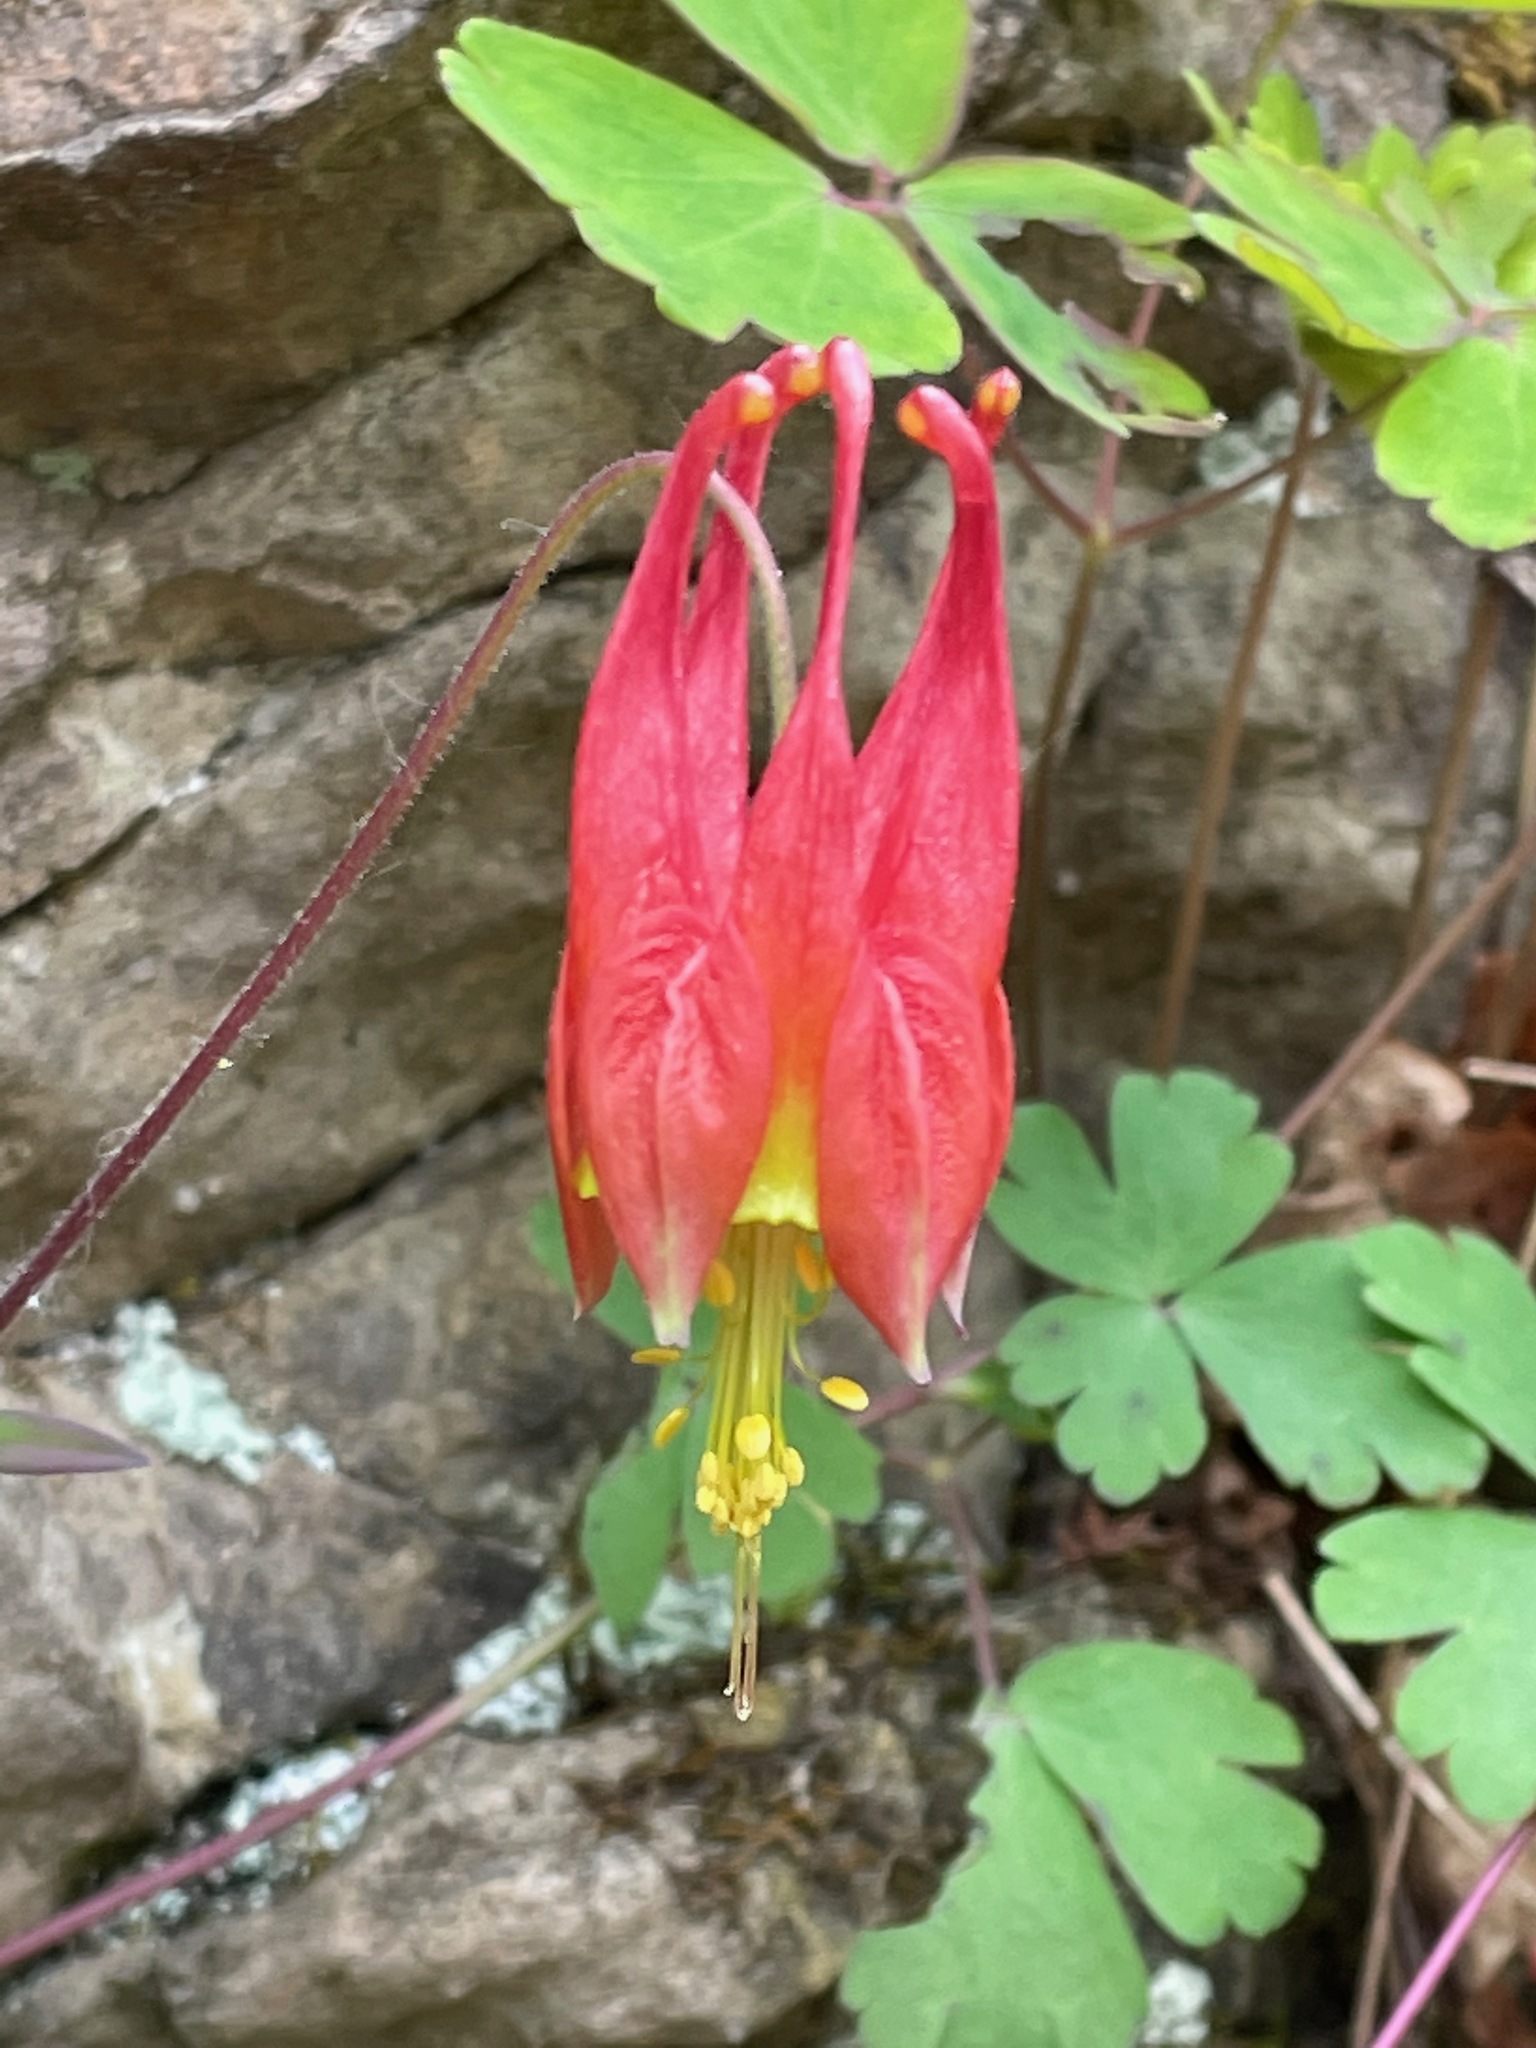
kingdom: Plantae
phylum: Tracheophyta
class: Magnoliopsida
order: Ranunculales
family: Ranunculaceae
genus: Aquilegia
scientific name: Aquilegia canadensis
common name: American columbine
